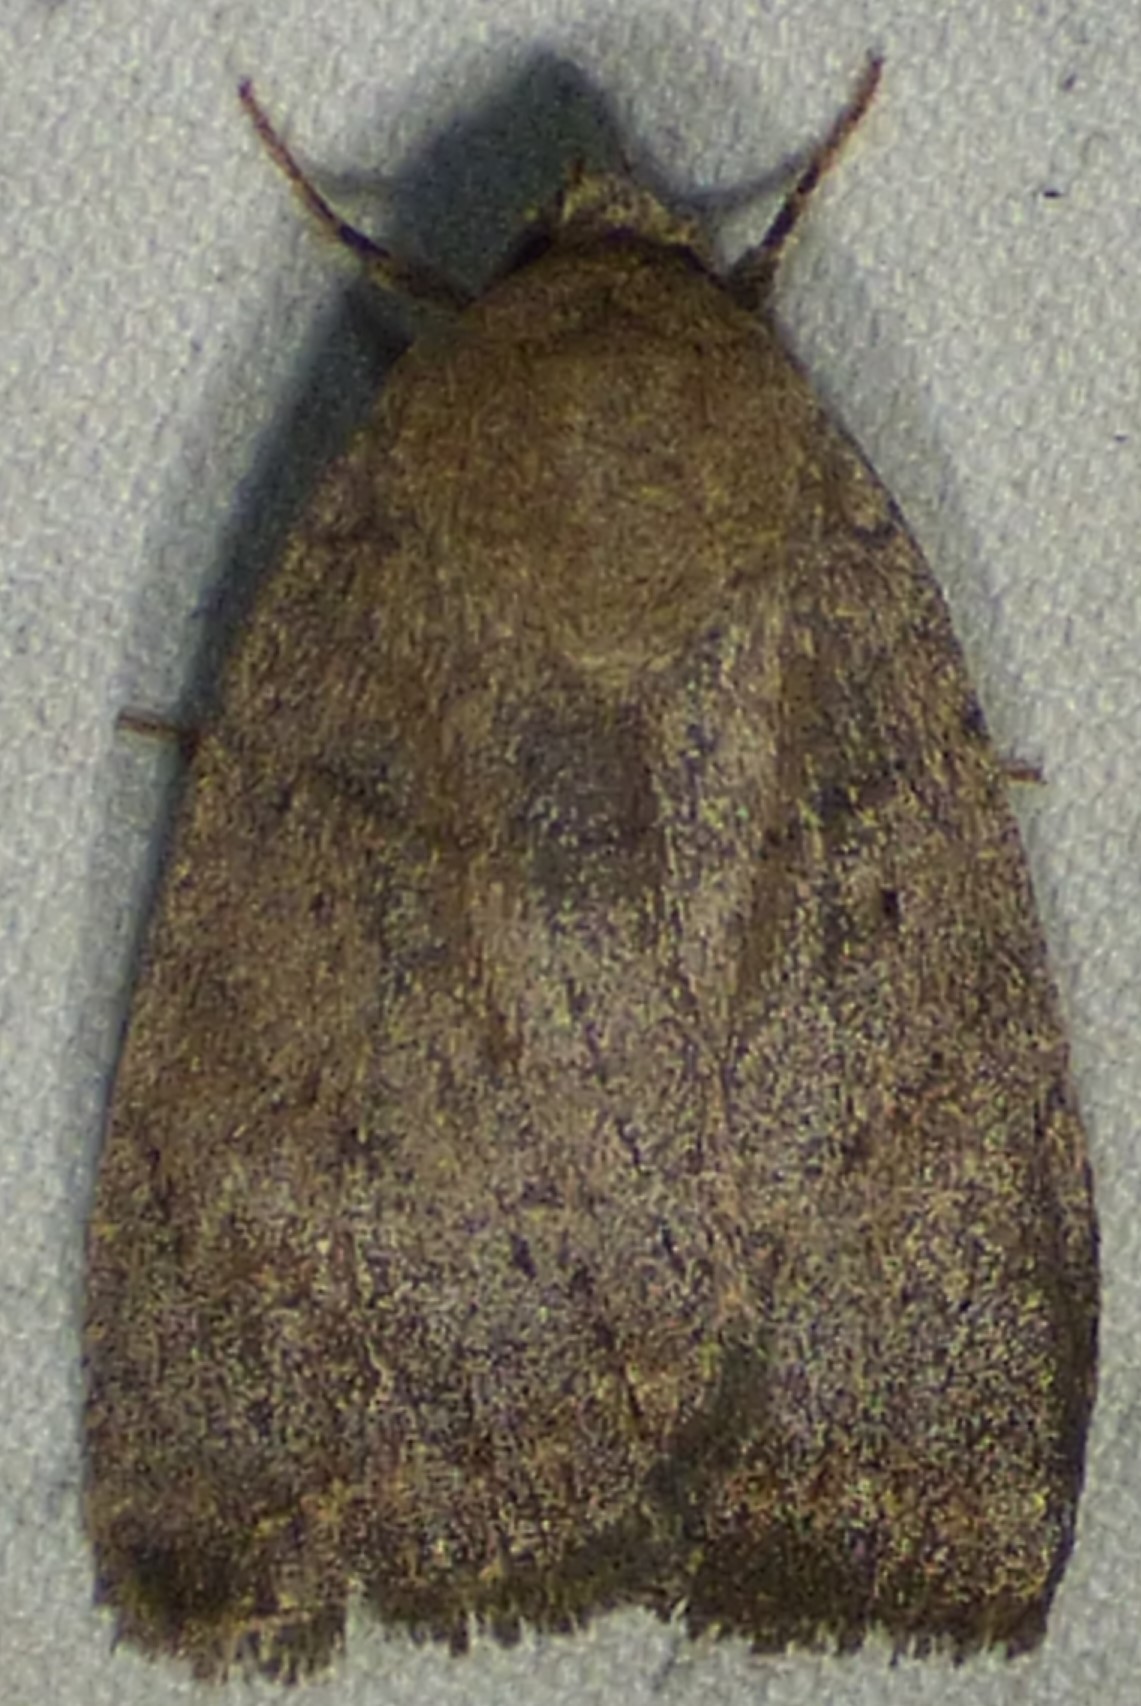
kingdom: Animalia
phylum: Arthropoda
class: Insecta
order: Lepidoptera
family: Noctuidae
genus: Athetis
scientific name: Athetis tarda
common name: Slowpoke moth
